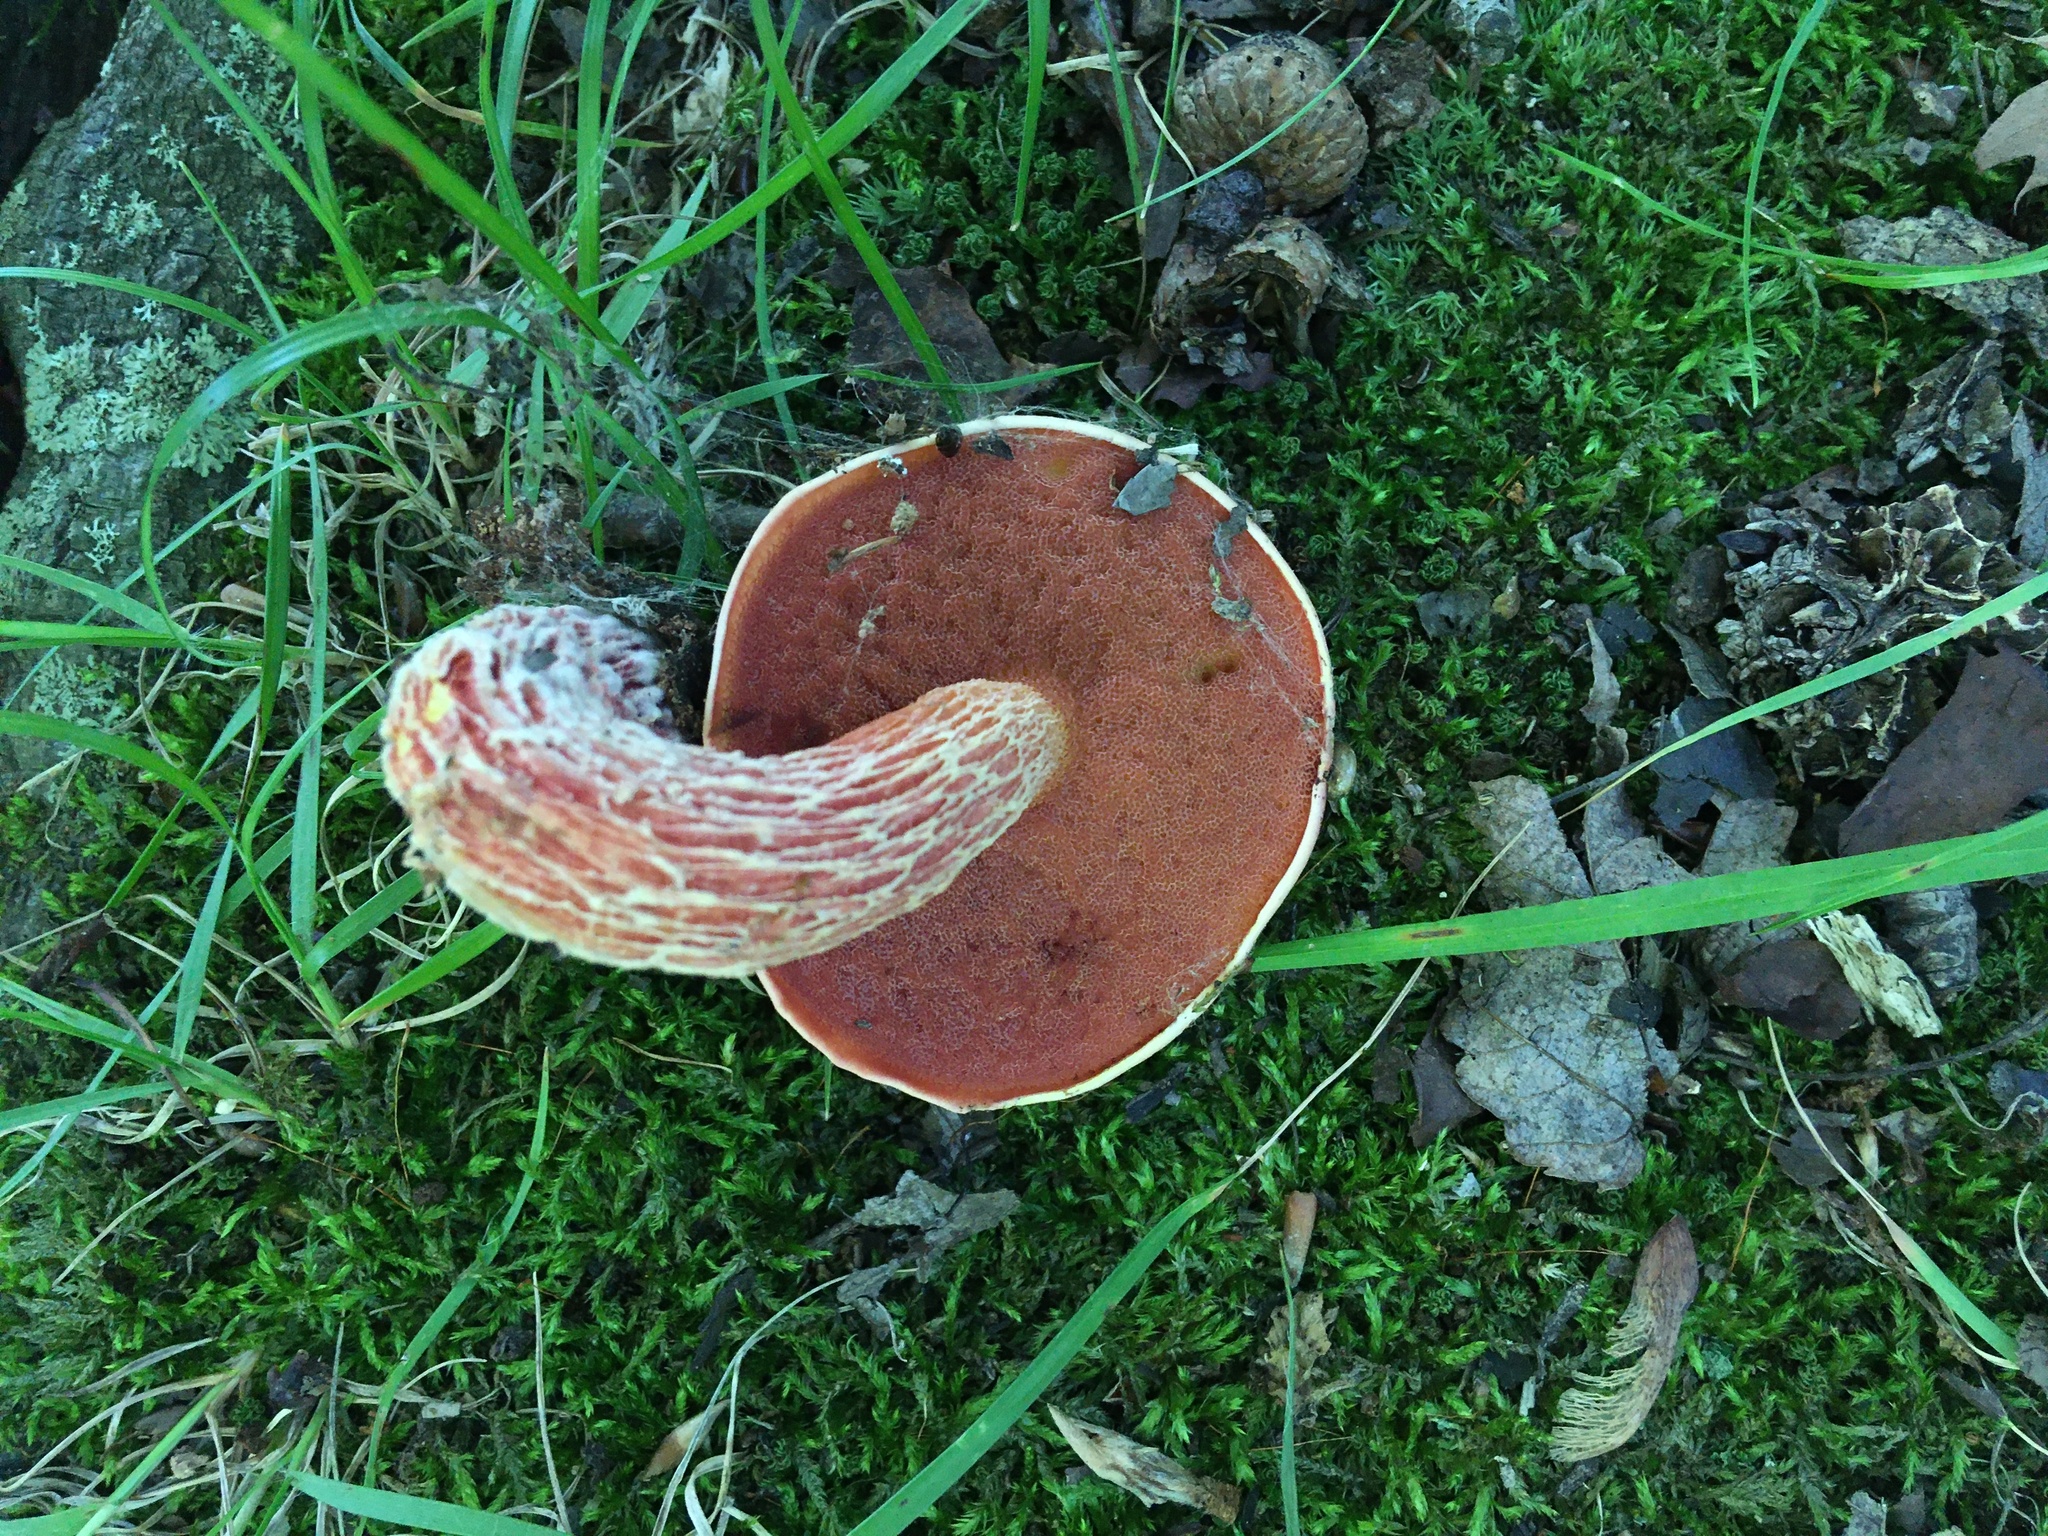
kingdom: Fungi
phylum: Basidiomycota
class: Agaricomycetes
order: Boletales
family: Boletaceae
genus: Butyriboletus
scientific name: Butyriboletus frostii
